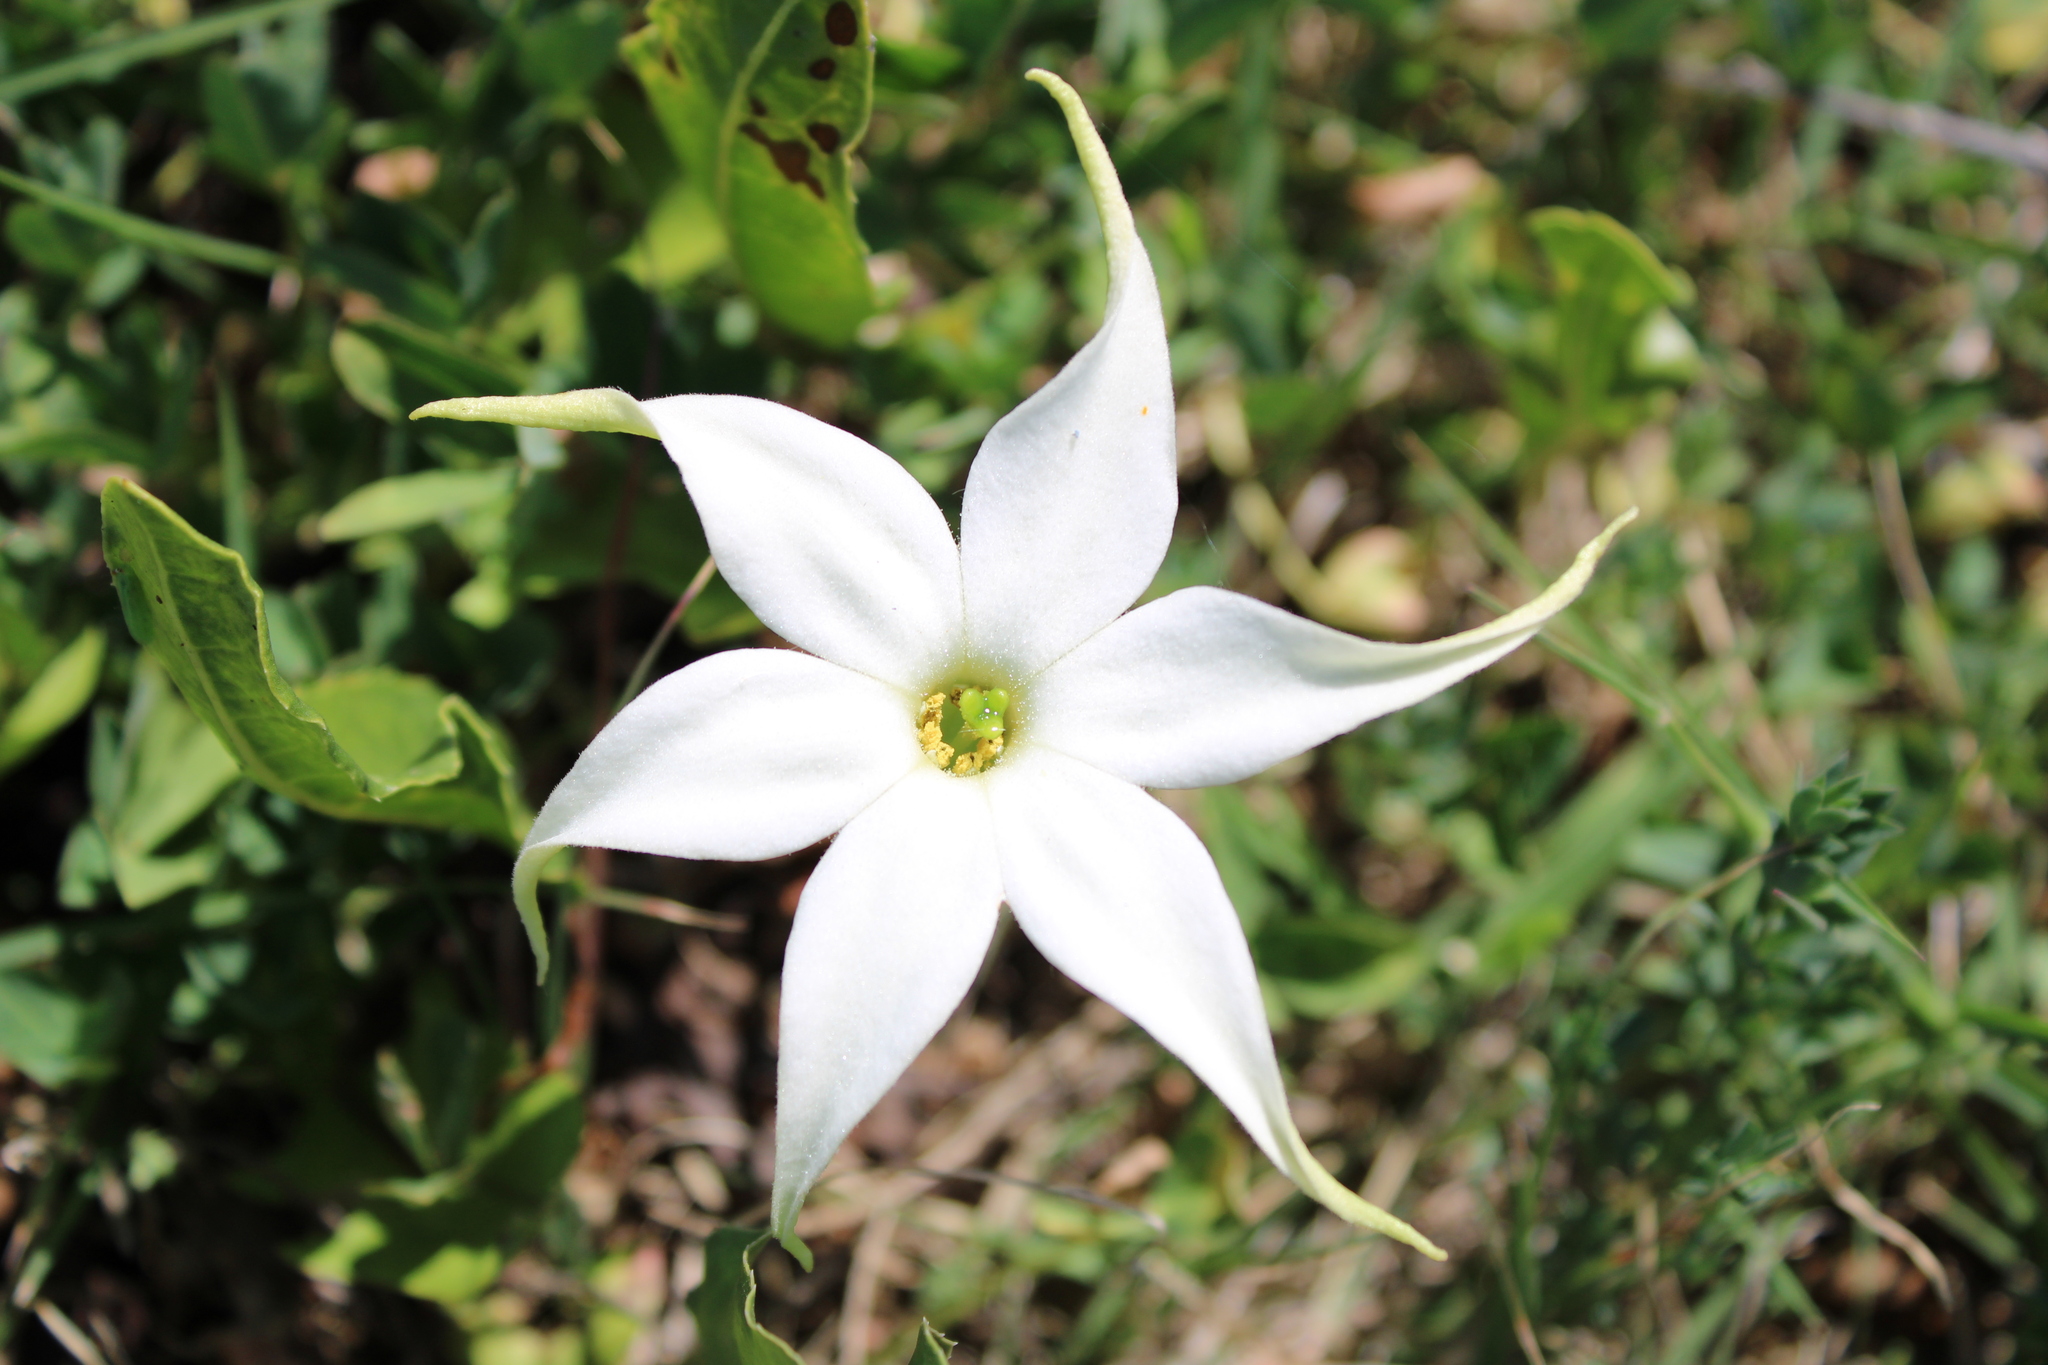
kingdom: Plantae
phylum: Tracheophyta
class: Magnoliopsida
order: Solanales
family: Solanaceae
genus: Jaborosa
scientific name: Jaborosa integrifolia
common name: Springblossom
